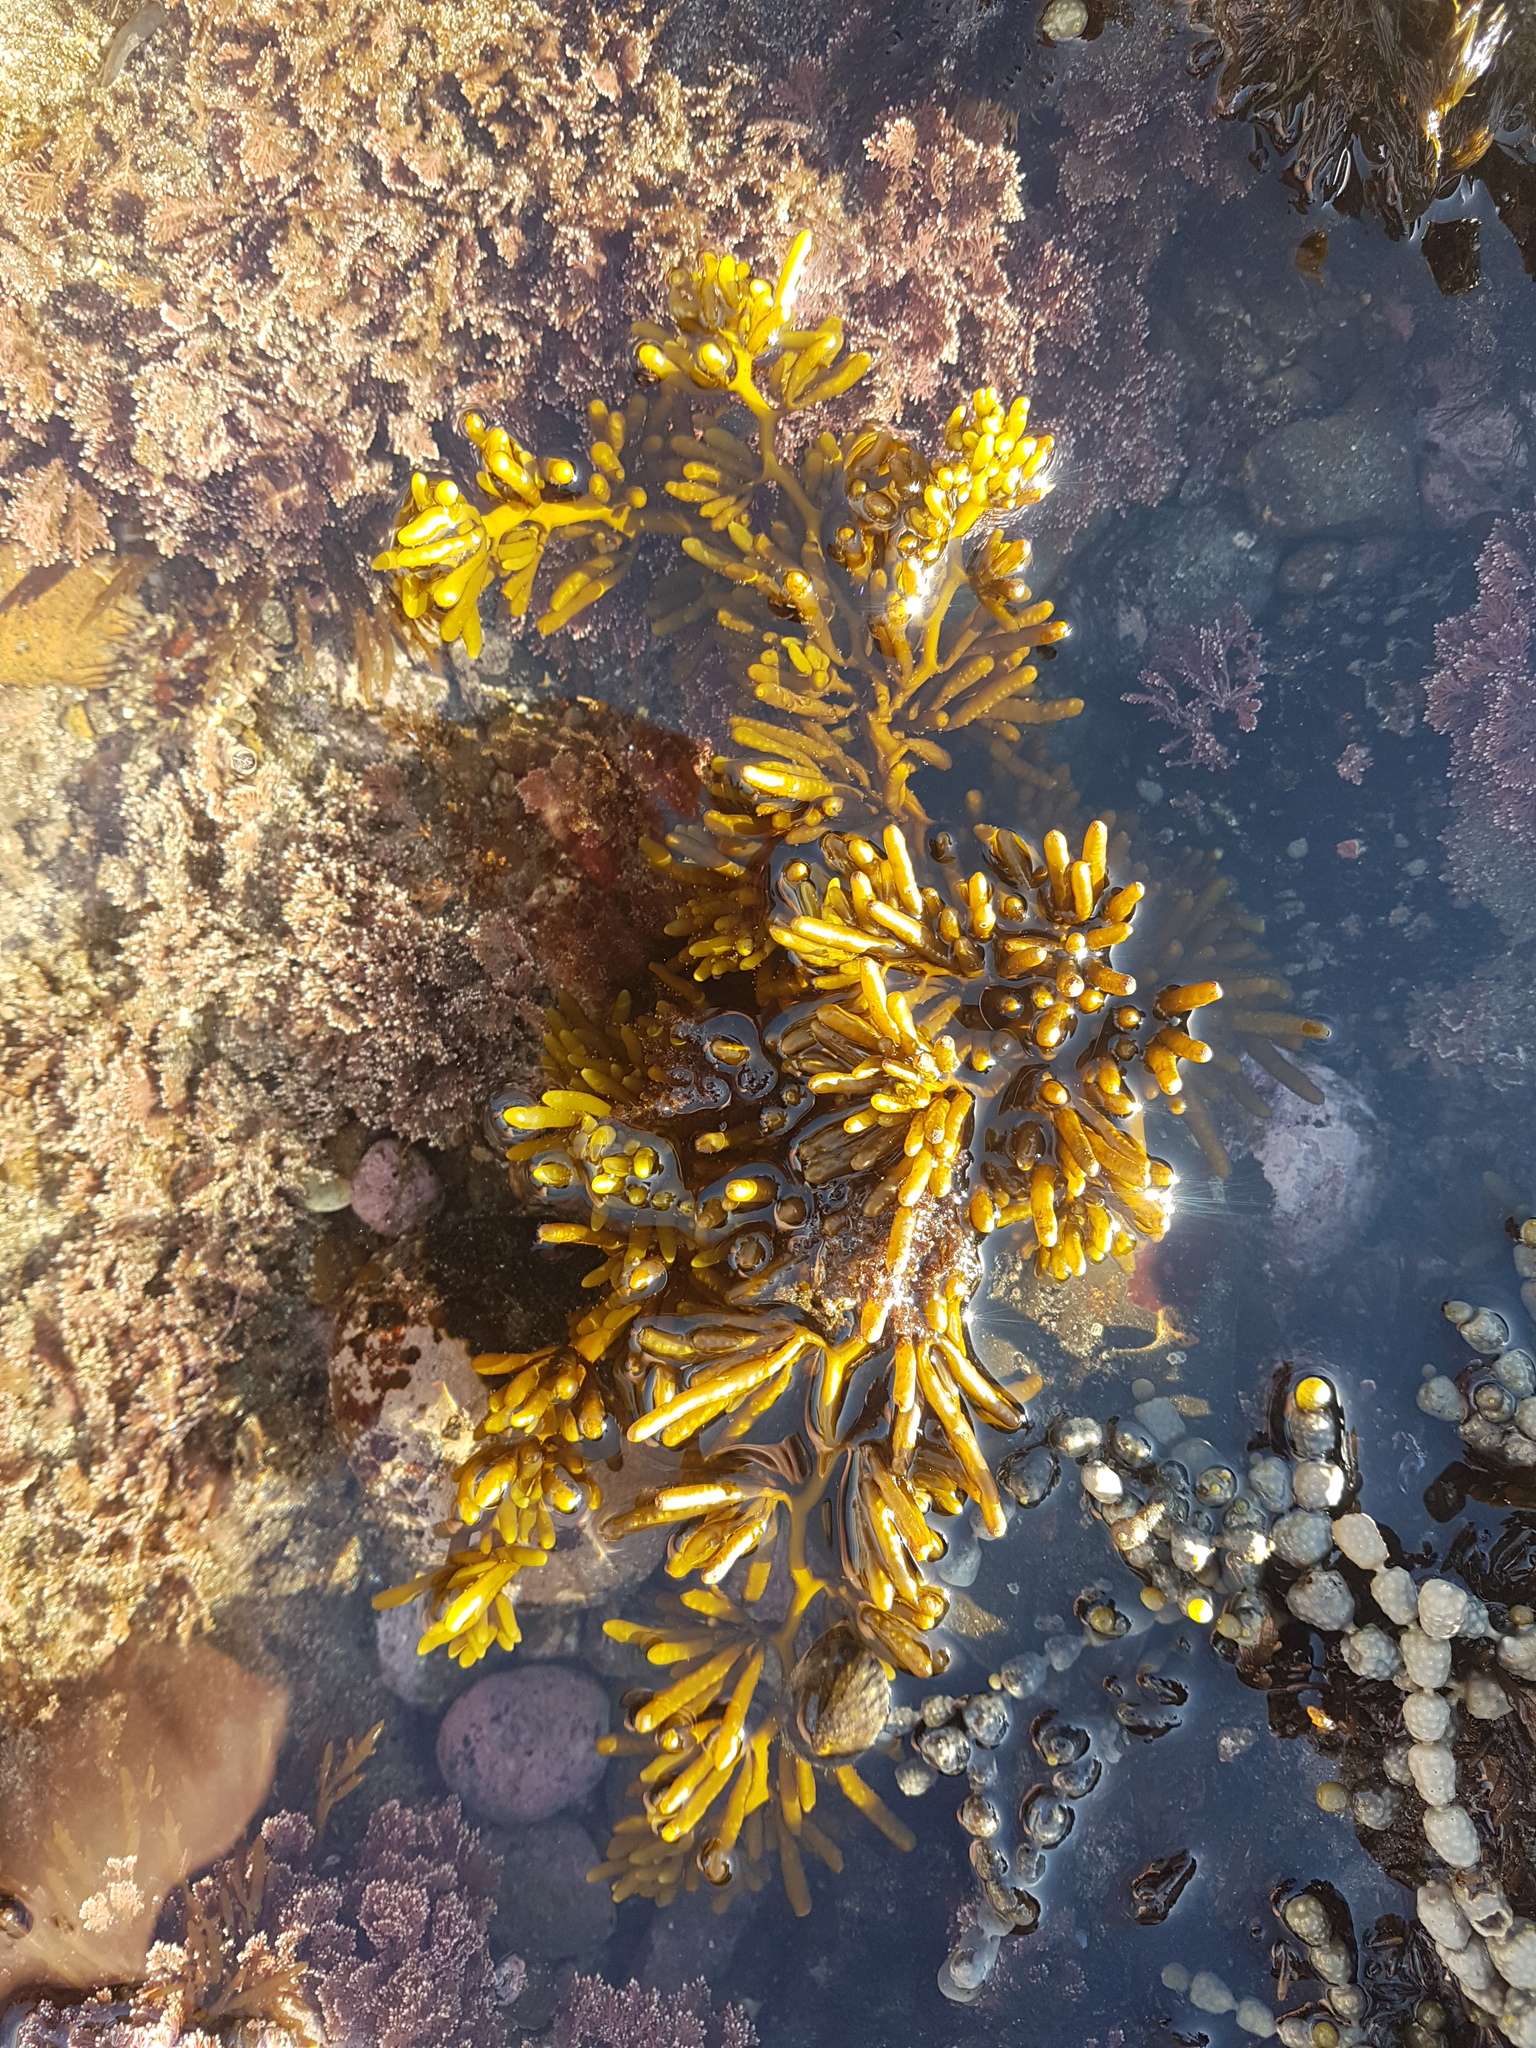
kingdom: Chromista
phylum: Ochrophyta
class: Phaeophyceae
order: Fucales
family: Sargassaceae
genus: Cystophora
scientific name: Cystophora torulosa
